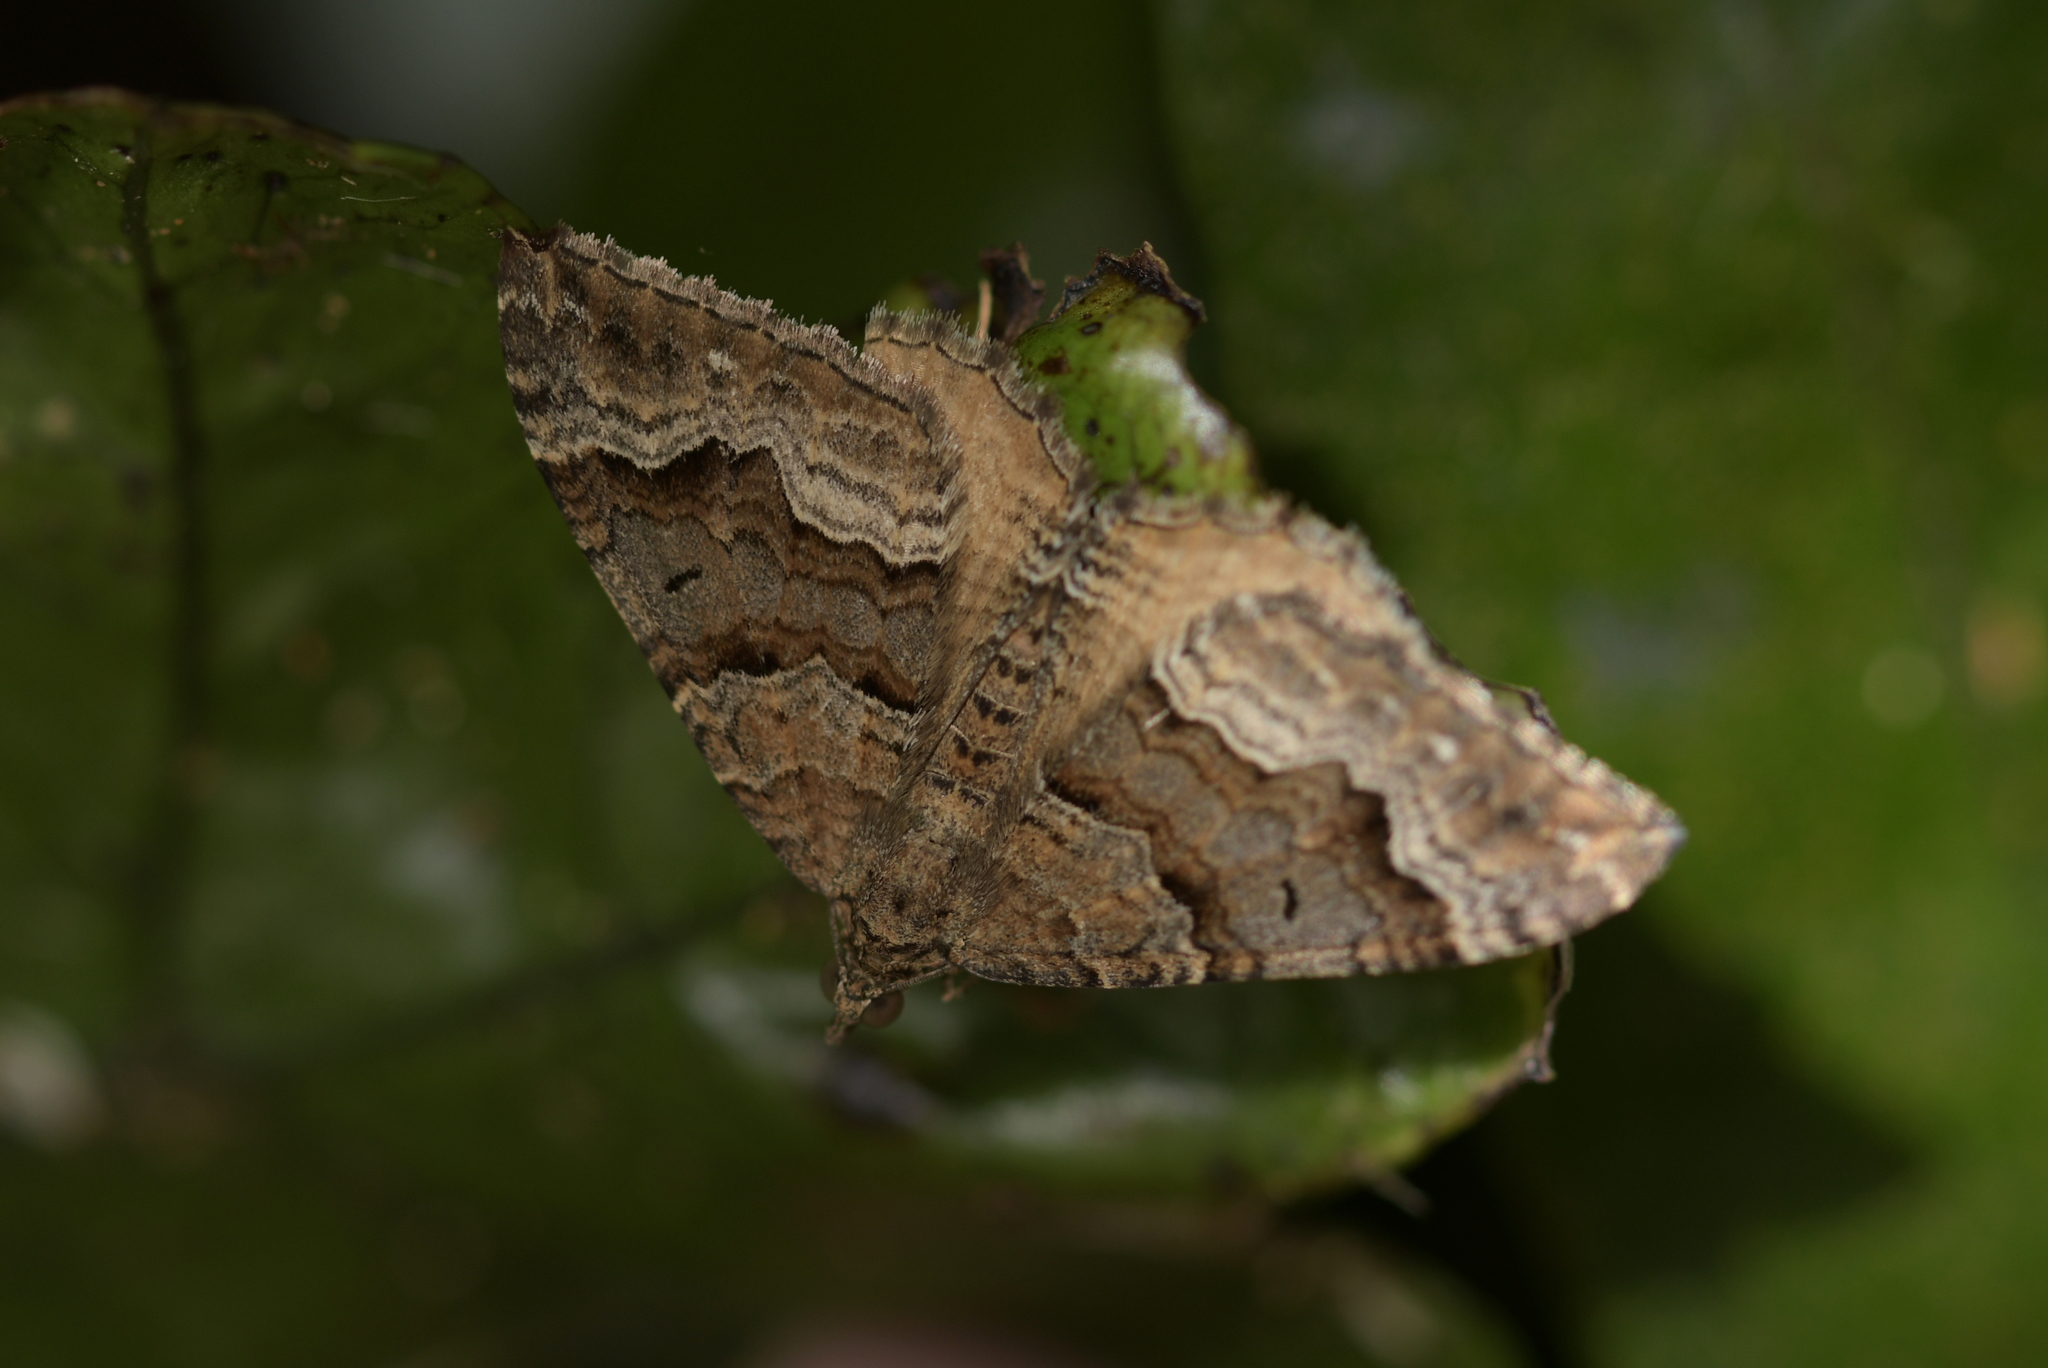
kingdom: Animalia
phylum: Arthropoda
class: Insecta
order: Lepidoptera
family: Geometridae
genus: Hydriomena
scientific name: Hydriomena deltoidata
